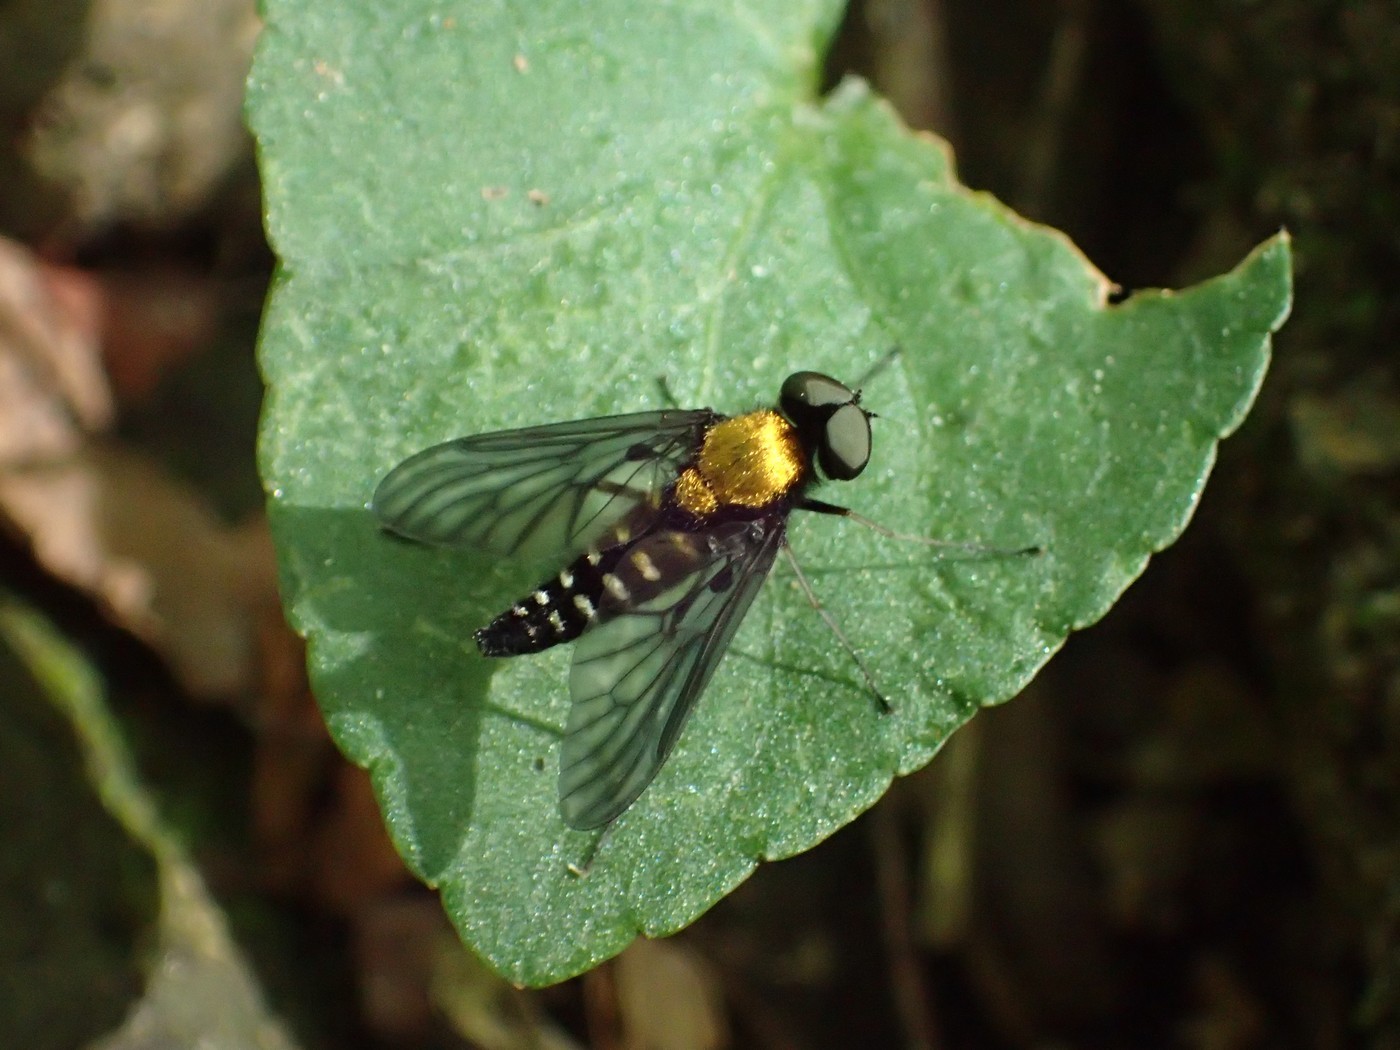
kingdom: Animalia
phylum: Arthropoda
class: Insecta
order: Diptera
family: Rhagionidae
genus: Chrysopilus
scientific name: Chrysopilus thoracicus
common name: Golden-backed snipe fly
